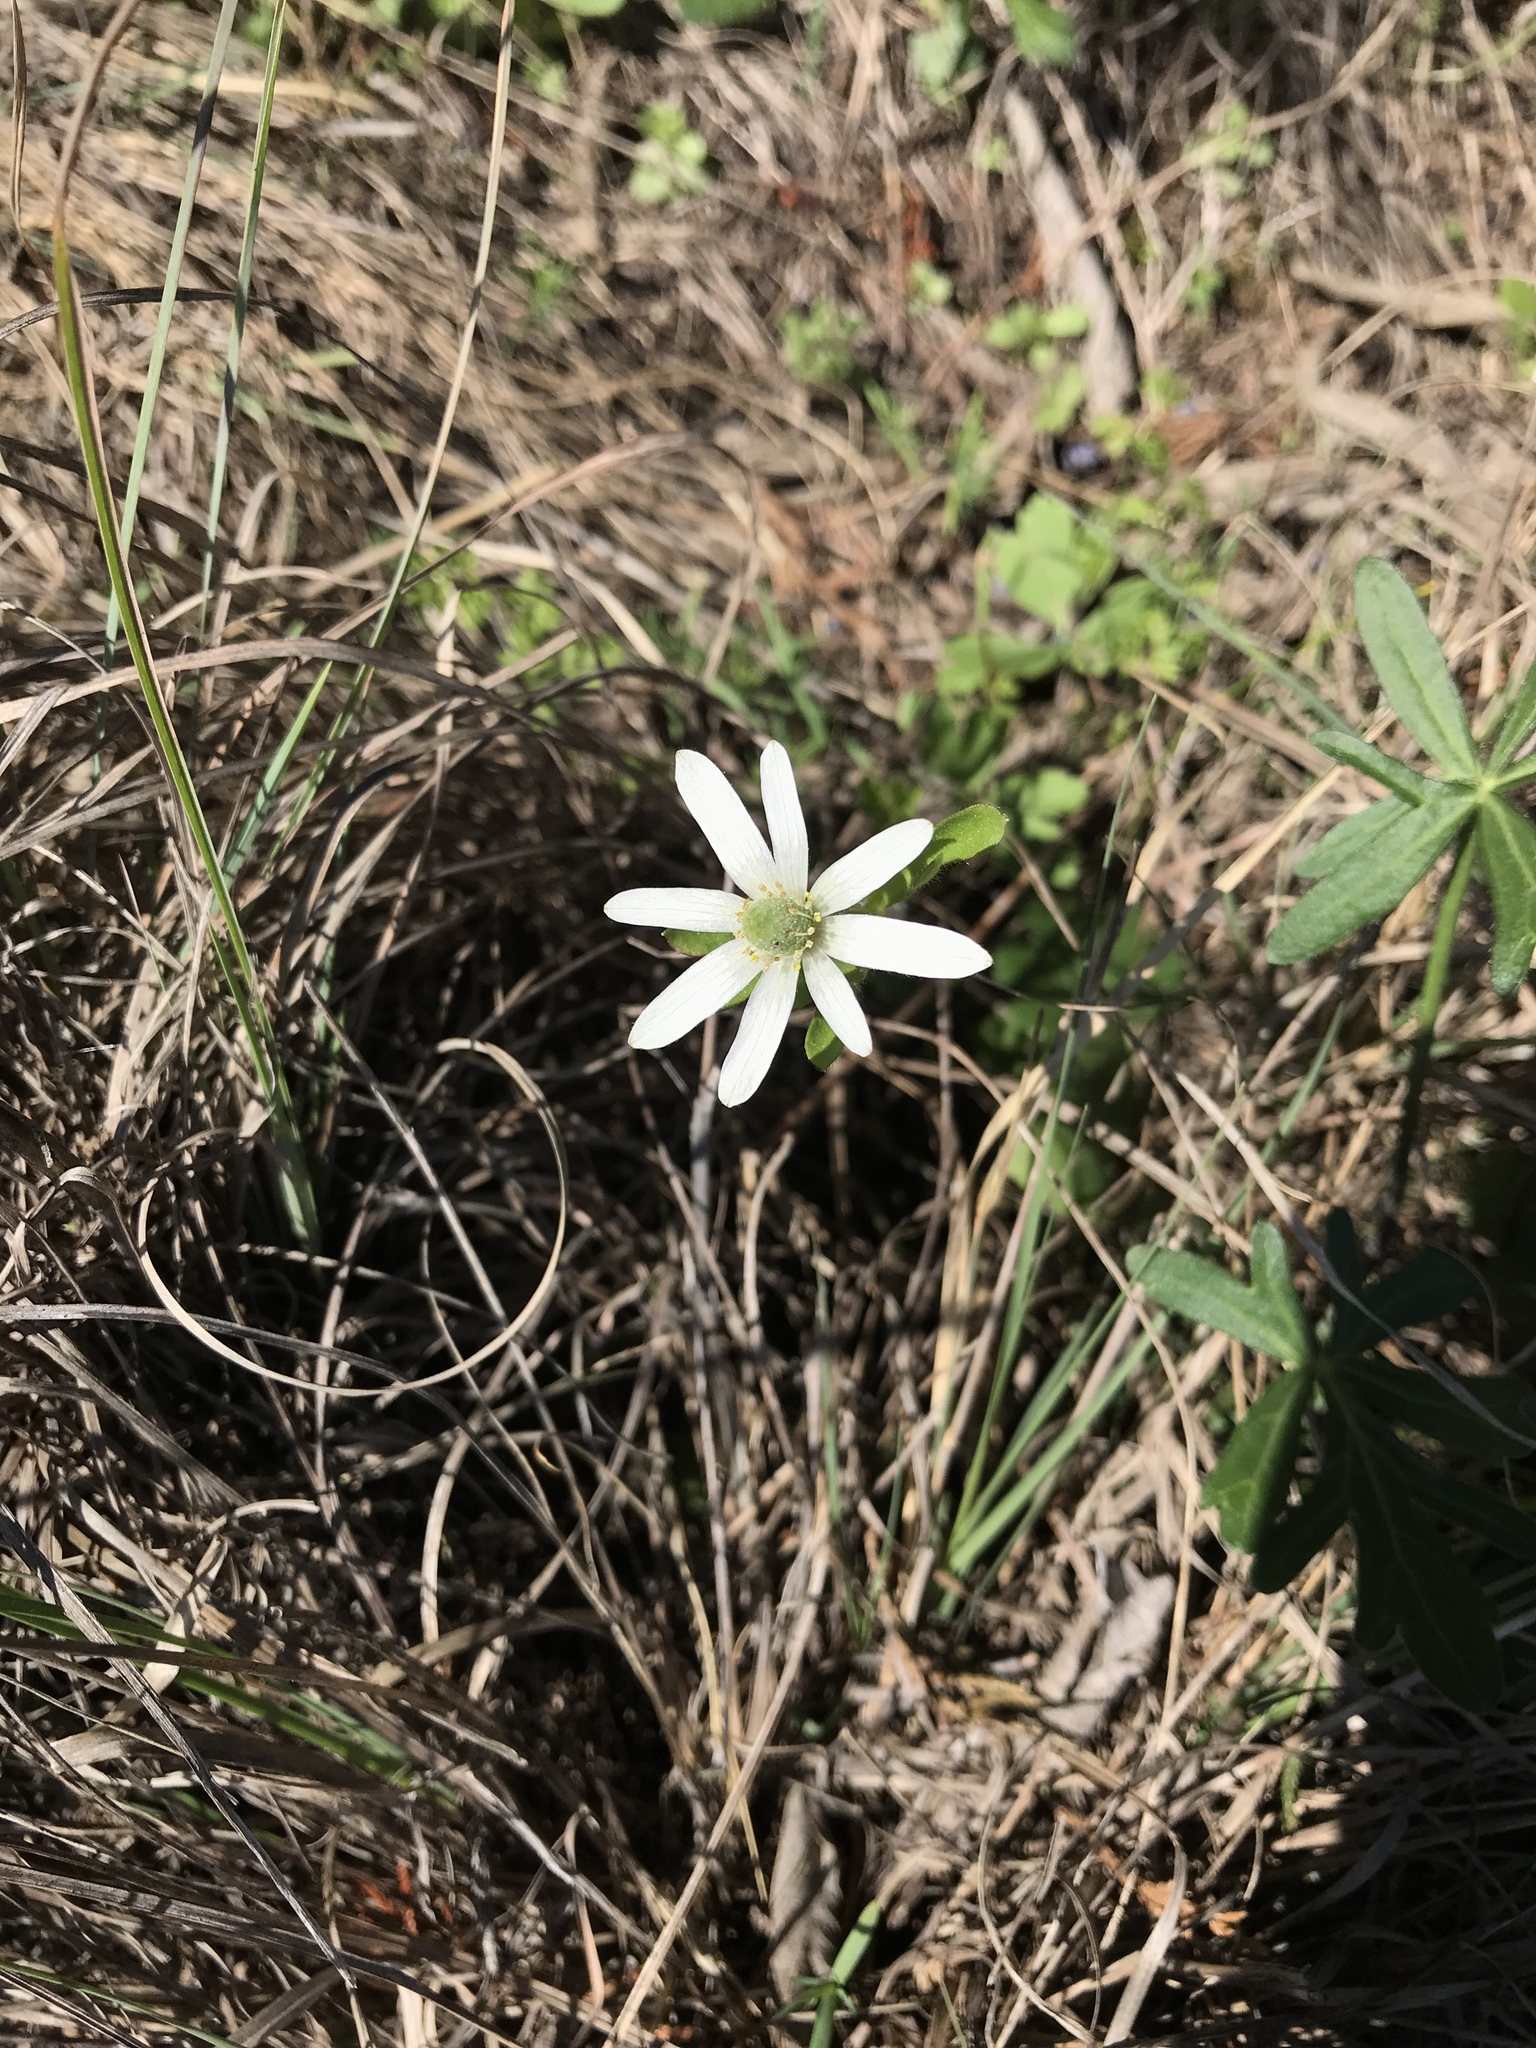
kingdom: Plantae
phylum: Tracheophyta
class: Magnoliopsida
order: Ranunculales
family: Ranunculaceae
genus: Anemone
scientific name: Anemone berlandieri
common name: Ten-petal anemone
